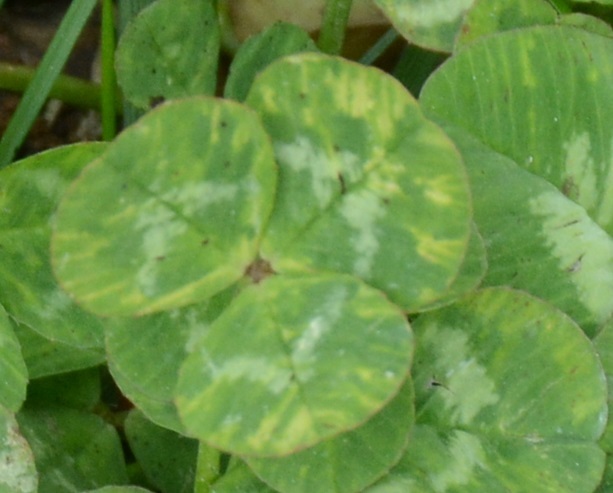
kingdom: Plantae
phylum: Tracheophyta
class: Magnoliopsida
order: Fabales
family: Fabaceae
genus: Trifolium
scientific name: Trifolium repens
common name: White clover
